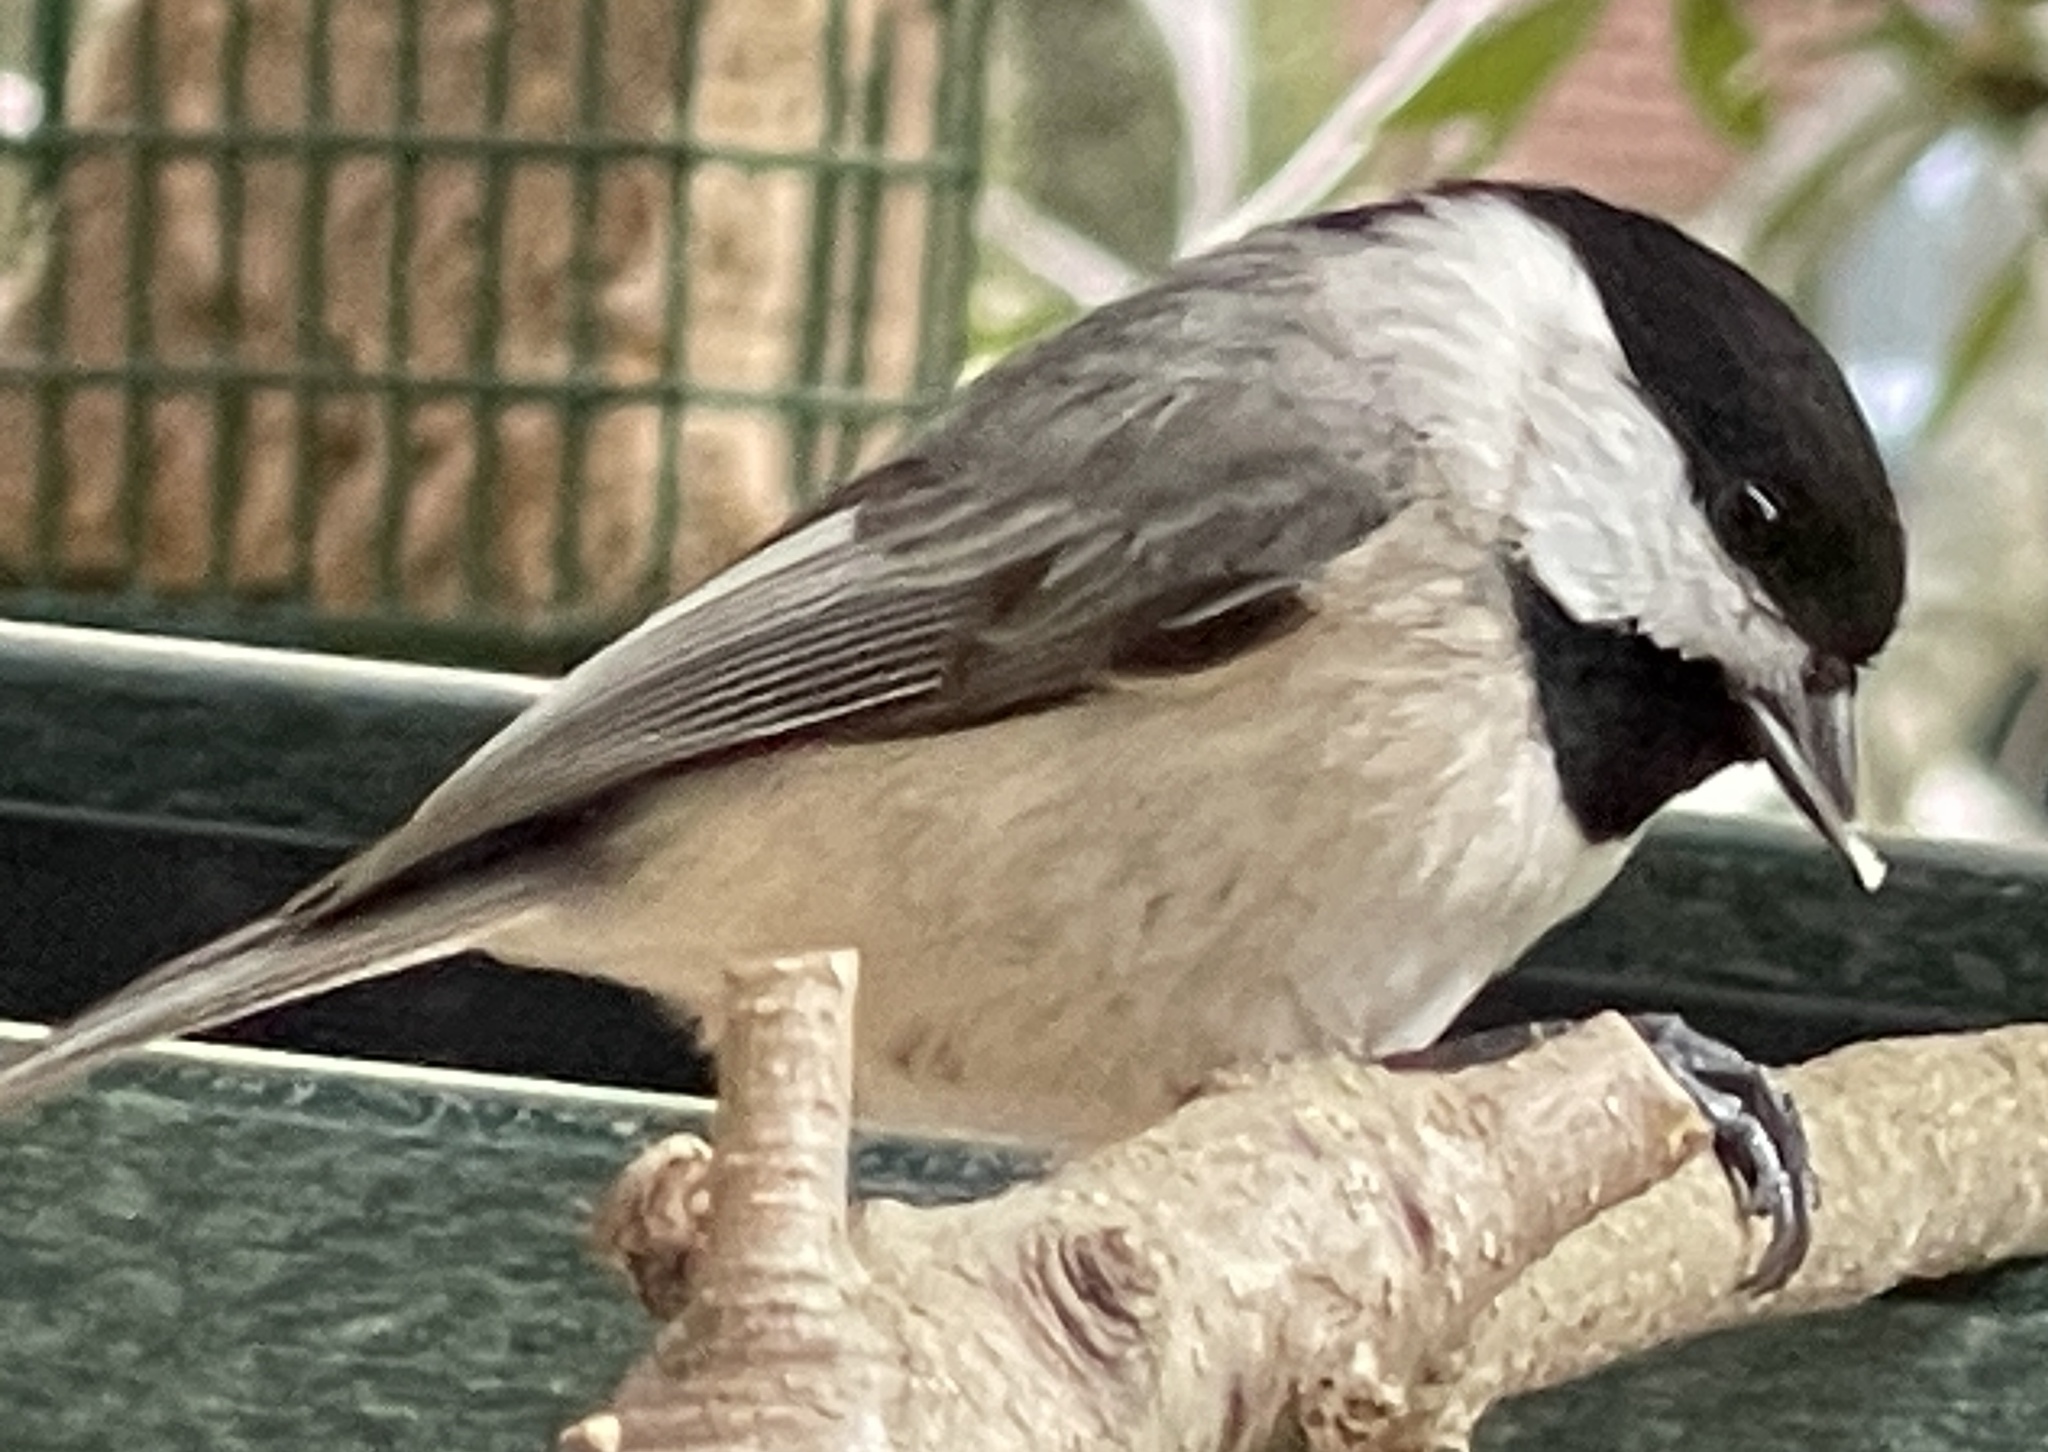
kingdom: Animalia
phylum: Chordata
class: Aves
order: Passeriformes
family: Paridae
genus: Poecile
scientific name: Poecile carolinensis
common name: Carolina chickadee
